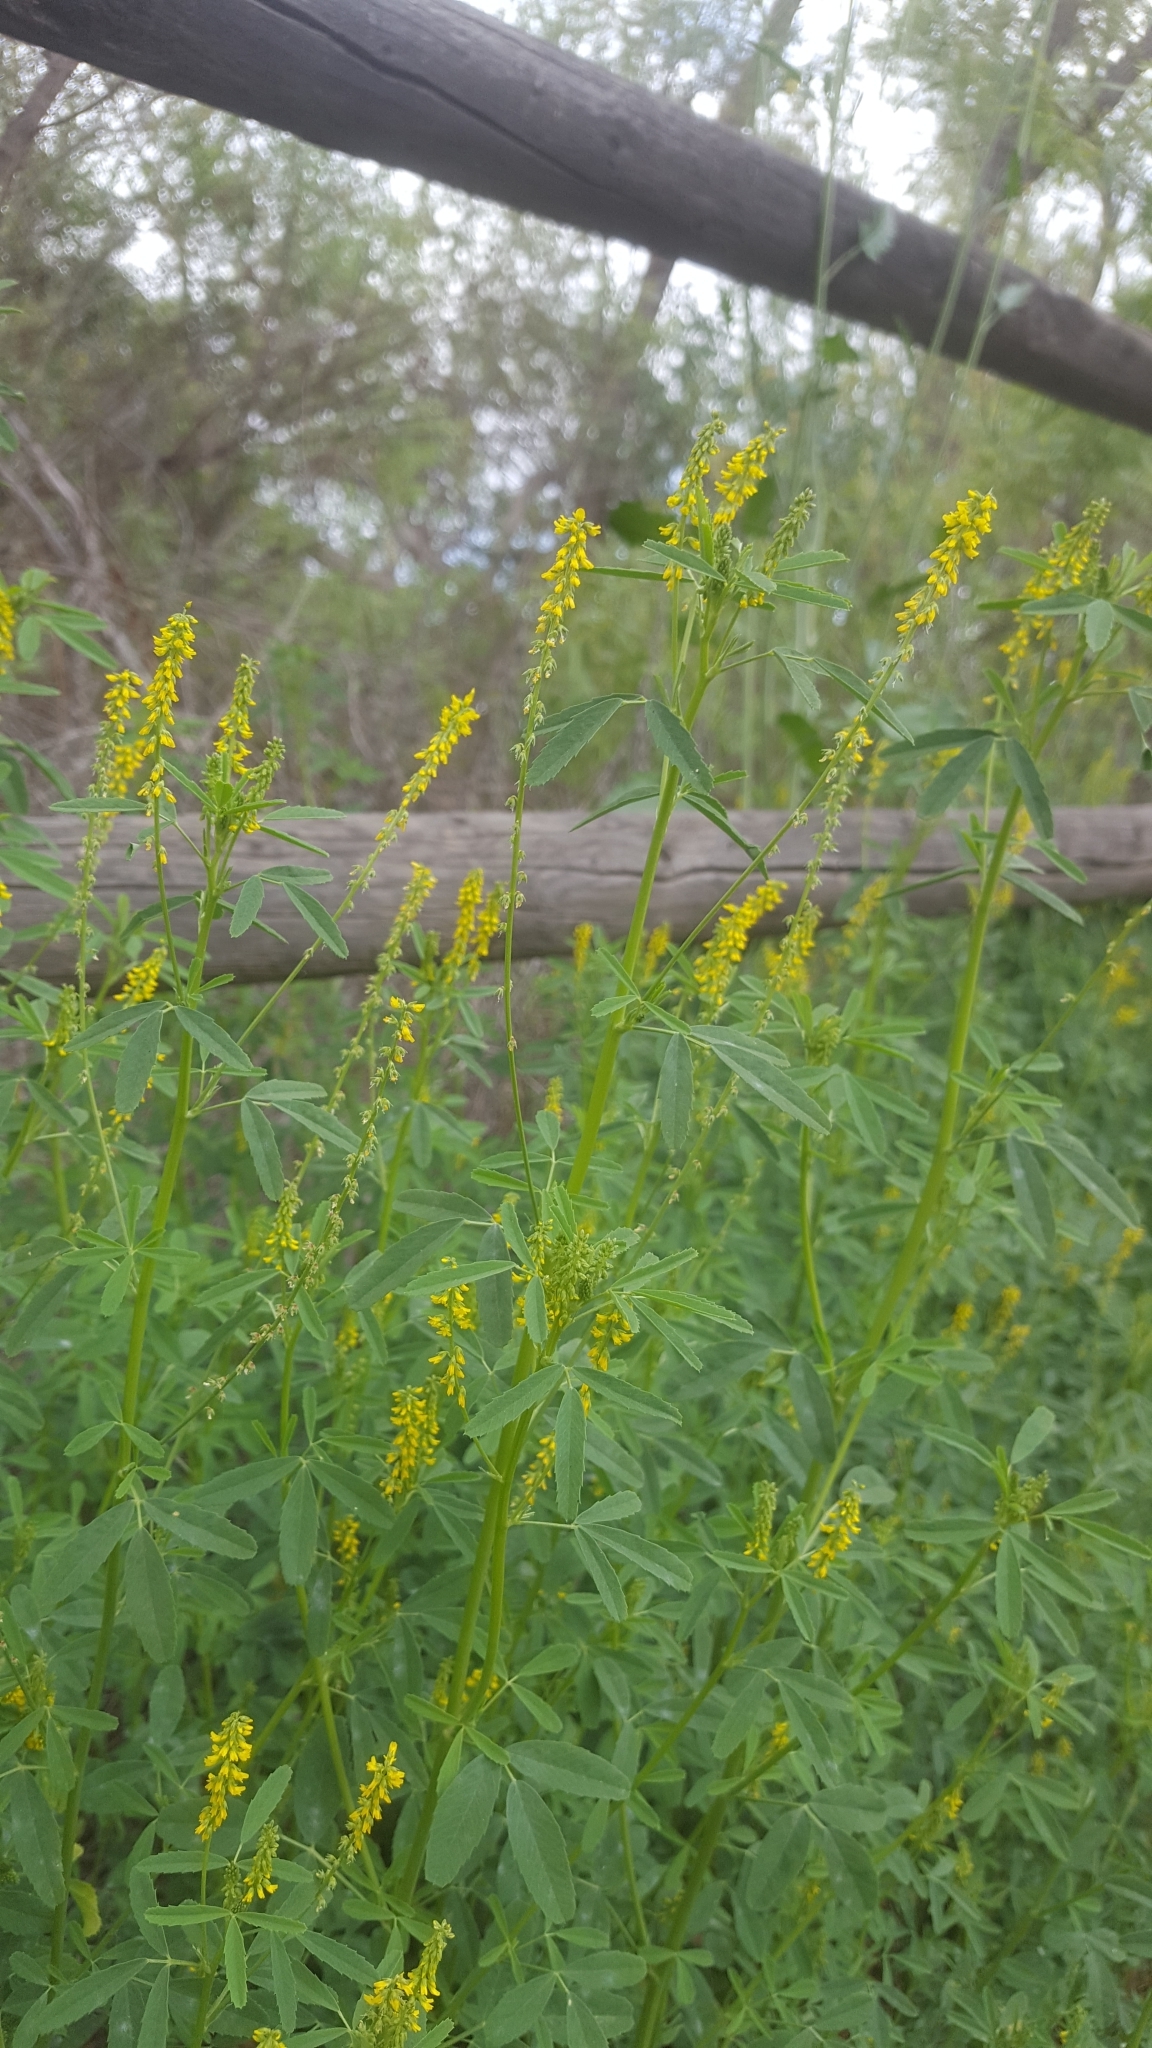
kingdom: Plantae
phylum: Tracheophyta
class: Magnoliopsida
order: Fabales
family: Fabaceae
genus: Melilotus
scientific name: Melilotus indicus
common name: Small melilot
